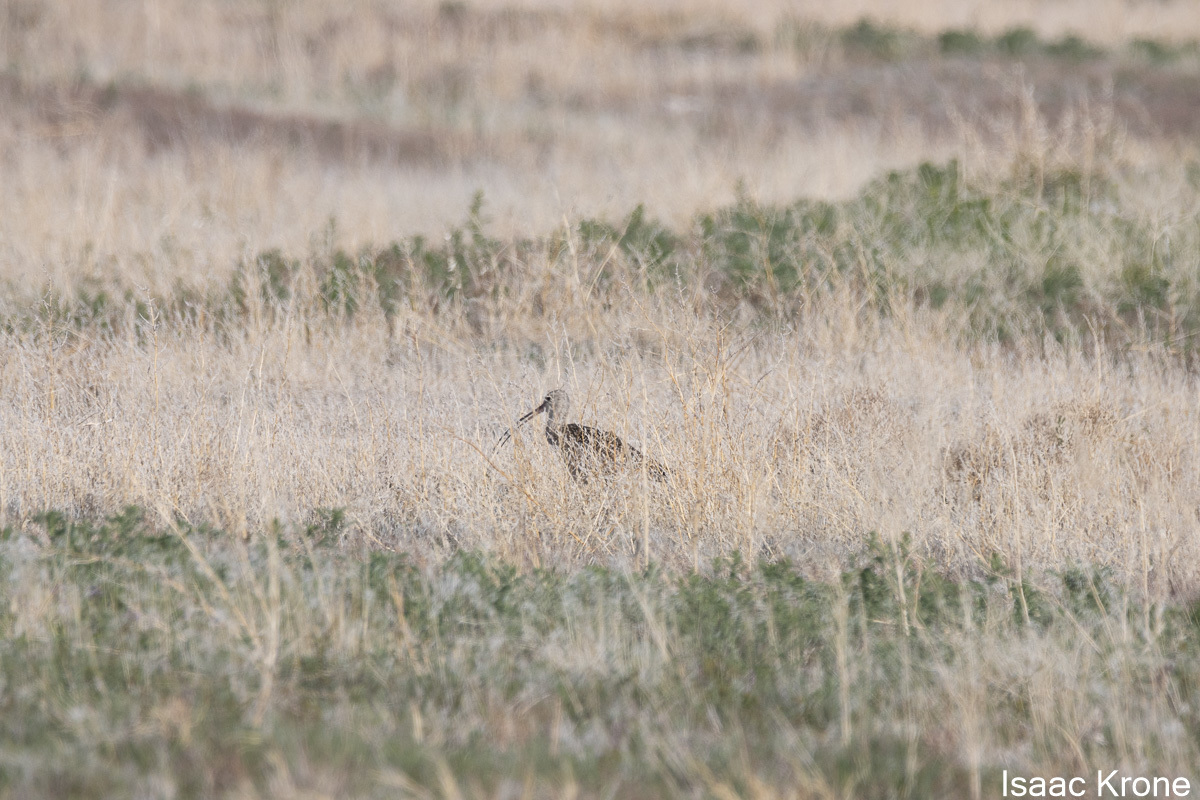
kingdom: Animalia
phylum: Chordata
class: Aves
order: Charadriiformes
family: Scolopacidae
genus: Numenius
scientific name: Numenius americanus
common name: Long-billed curlew
